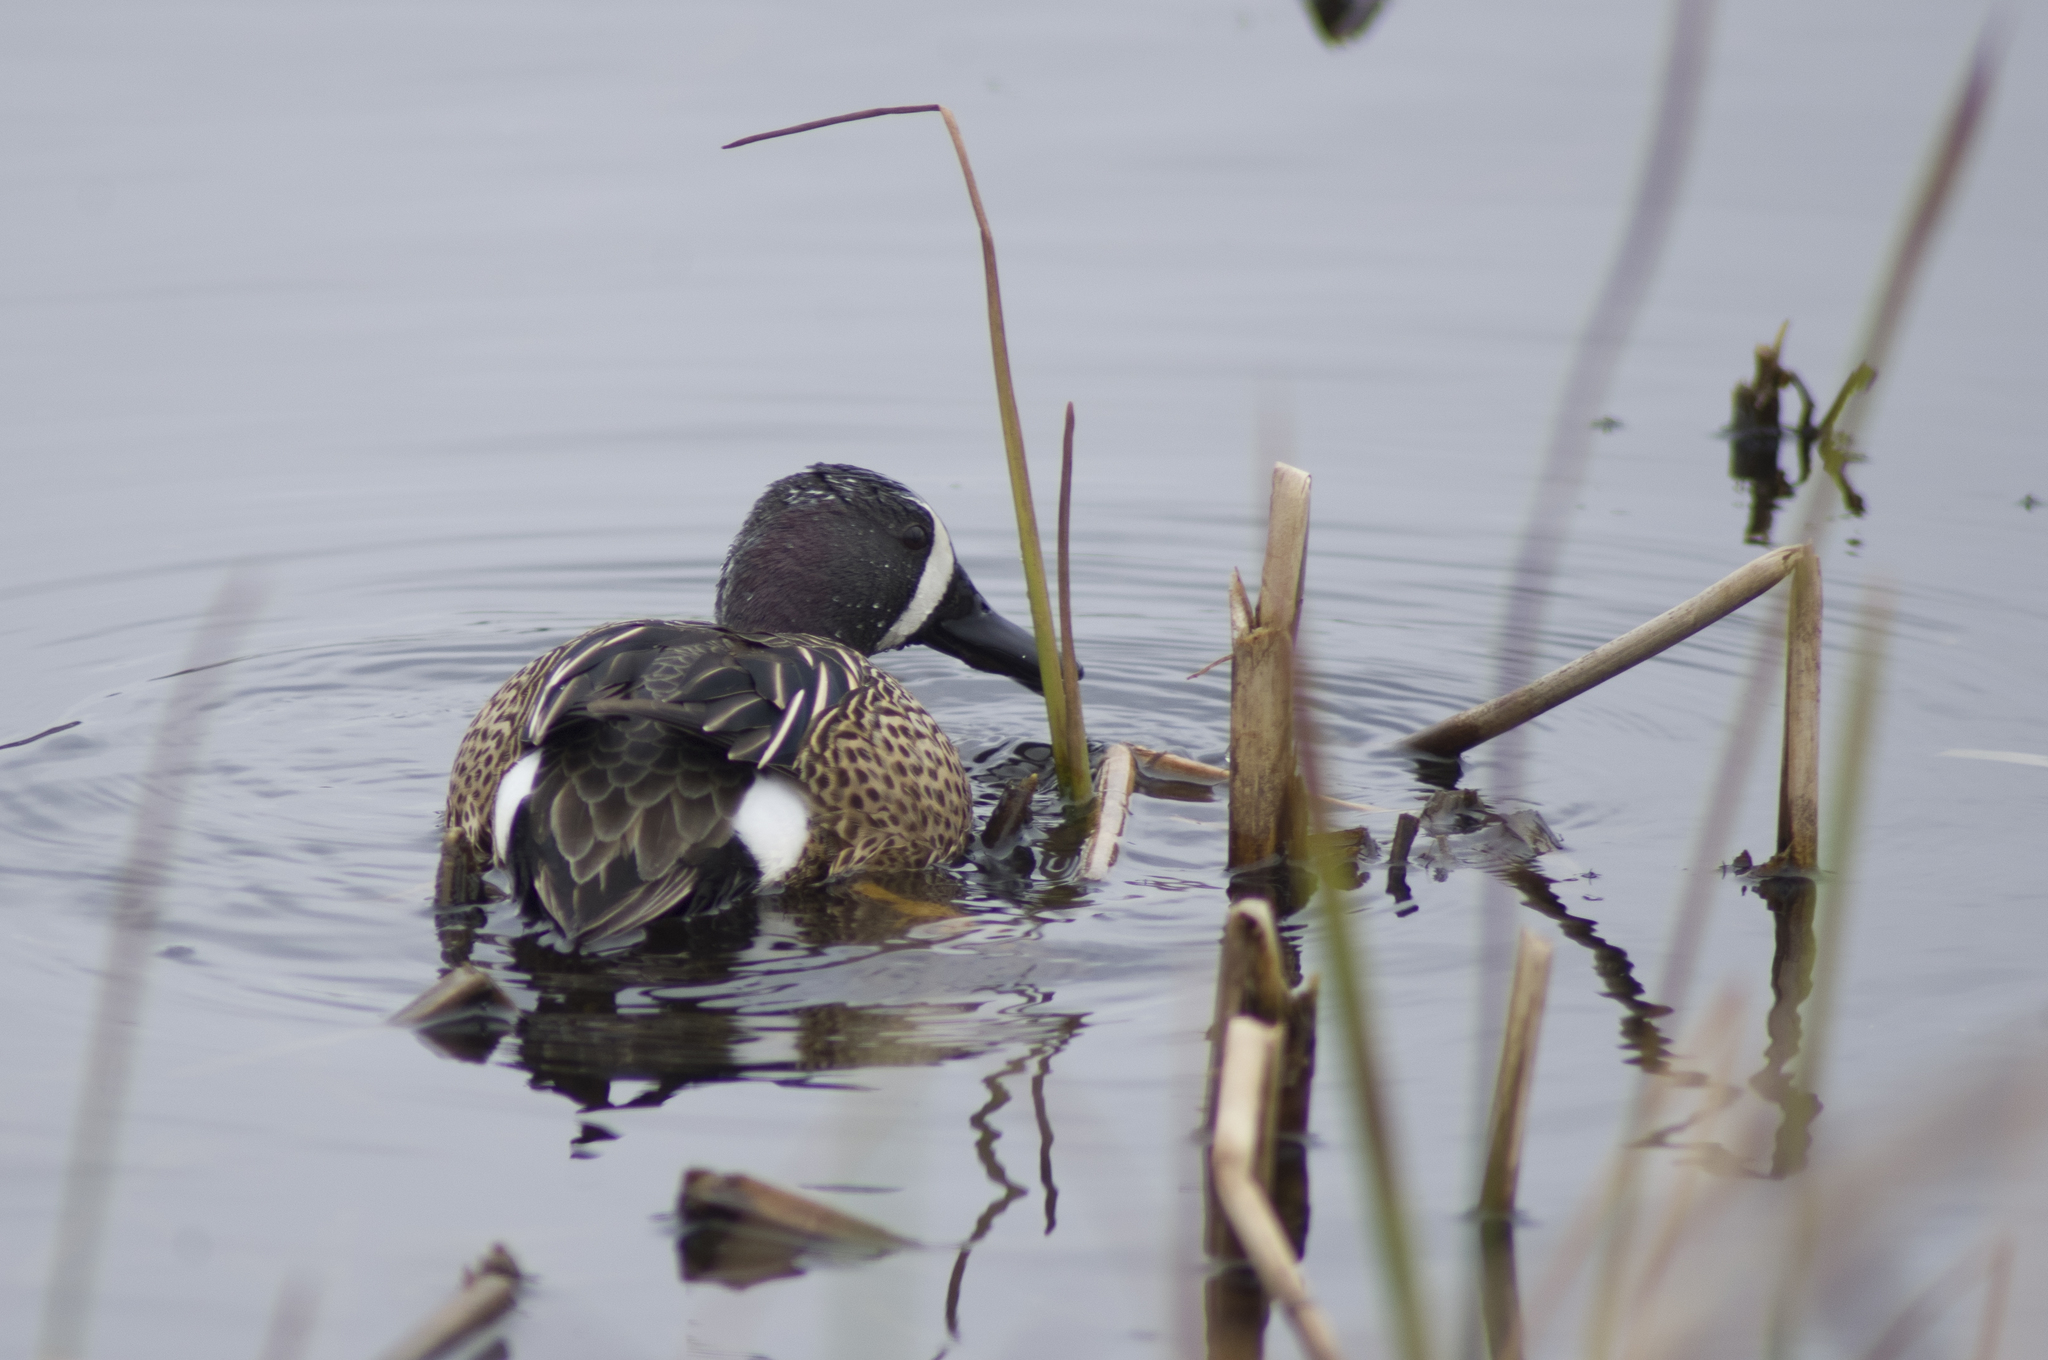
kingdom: Animalia
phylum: Chordata
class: Aves
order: Anseriformes
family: Anatidae
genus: Spatula
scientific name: Spatula discors
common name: Blue-winged teal
